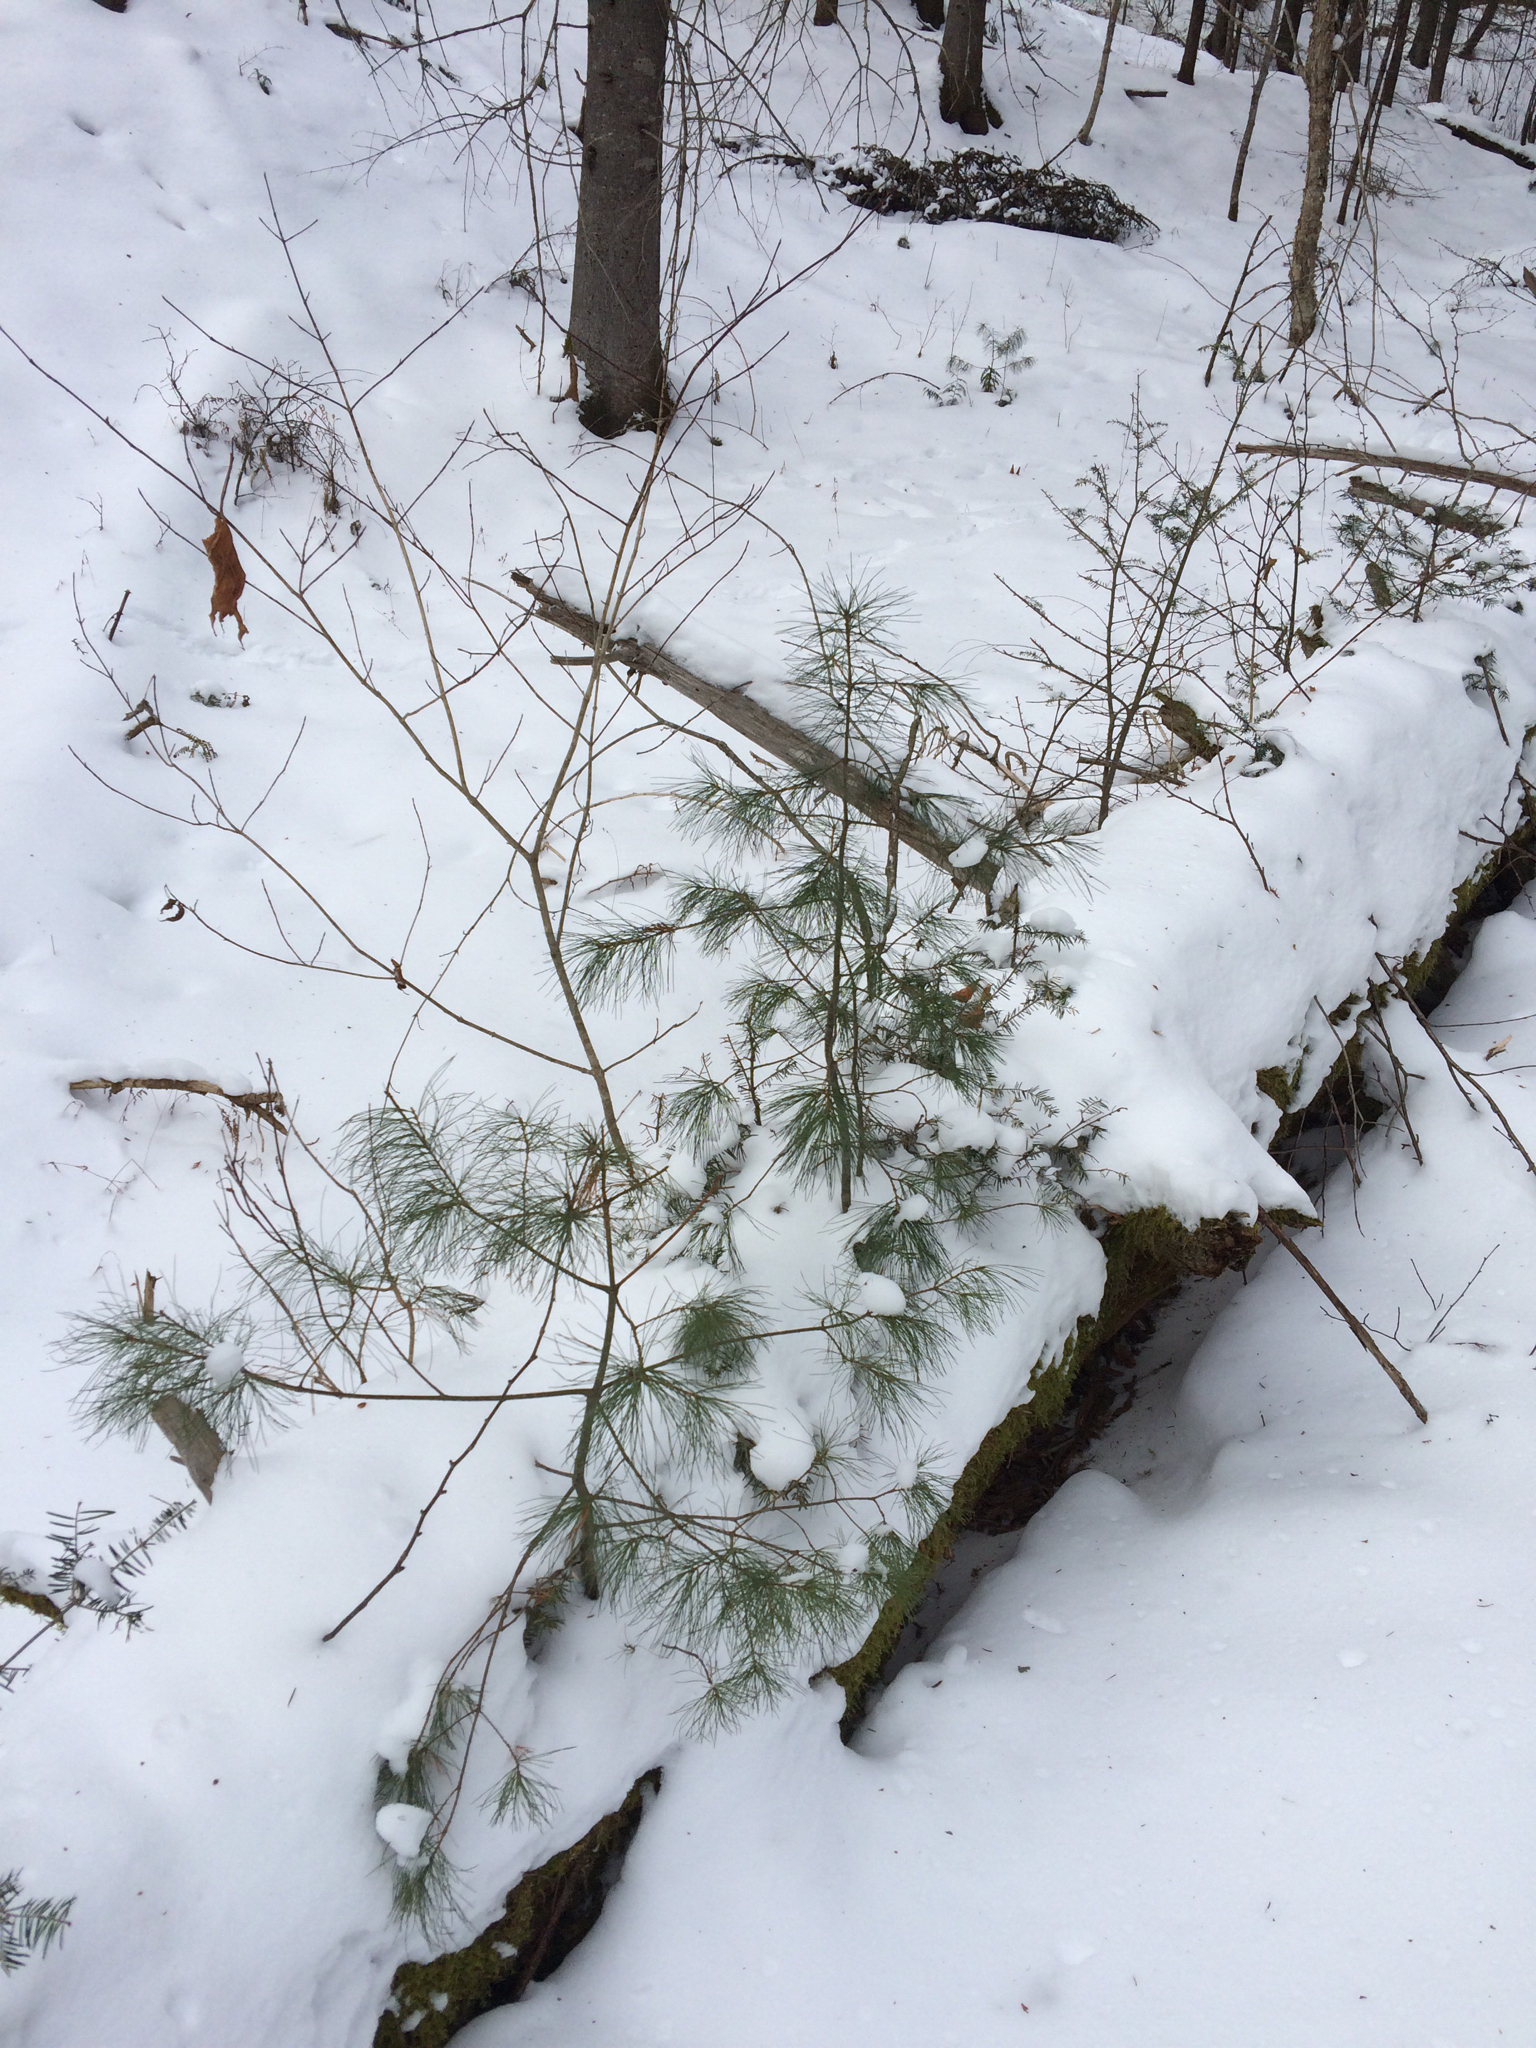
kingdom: Plantae
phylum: Tracheophyta
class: Pinopsida
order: Pinales
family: Pinaceae
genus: Pinus
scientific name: Pinus strobus
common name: Weymouth pine
